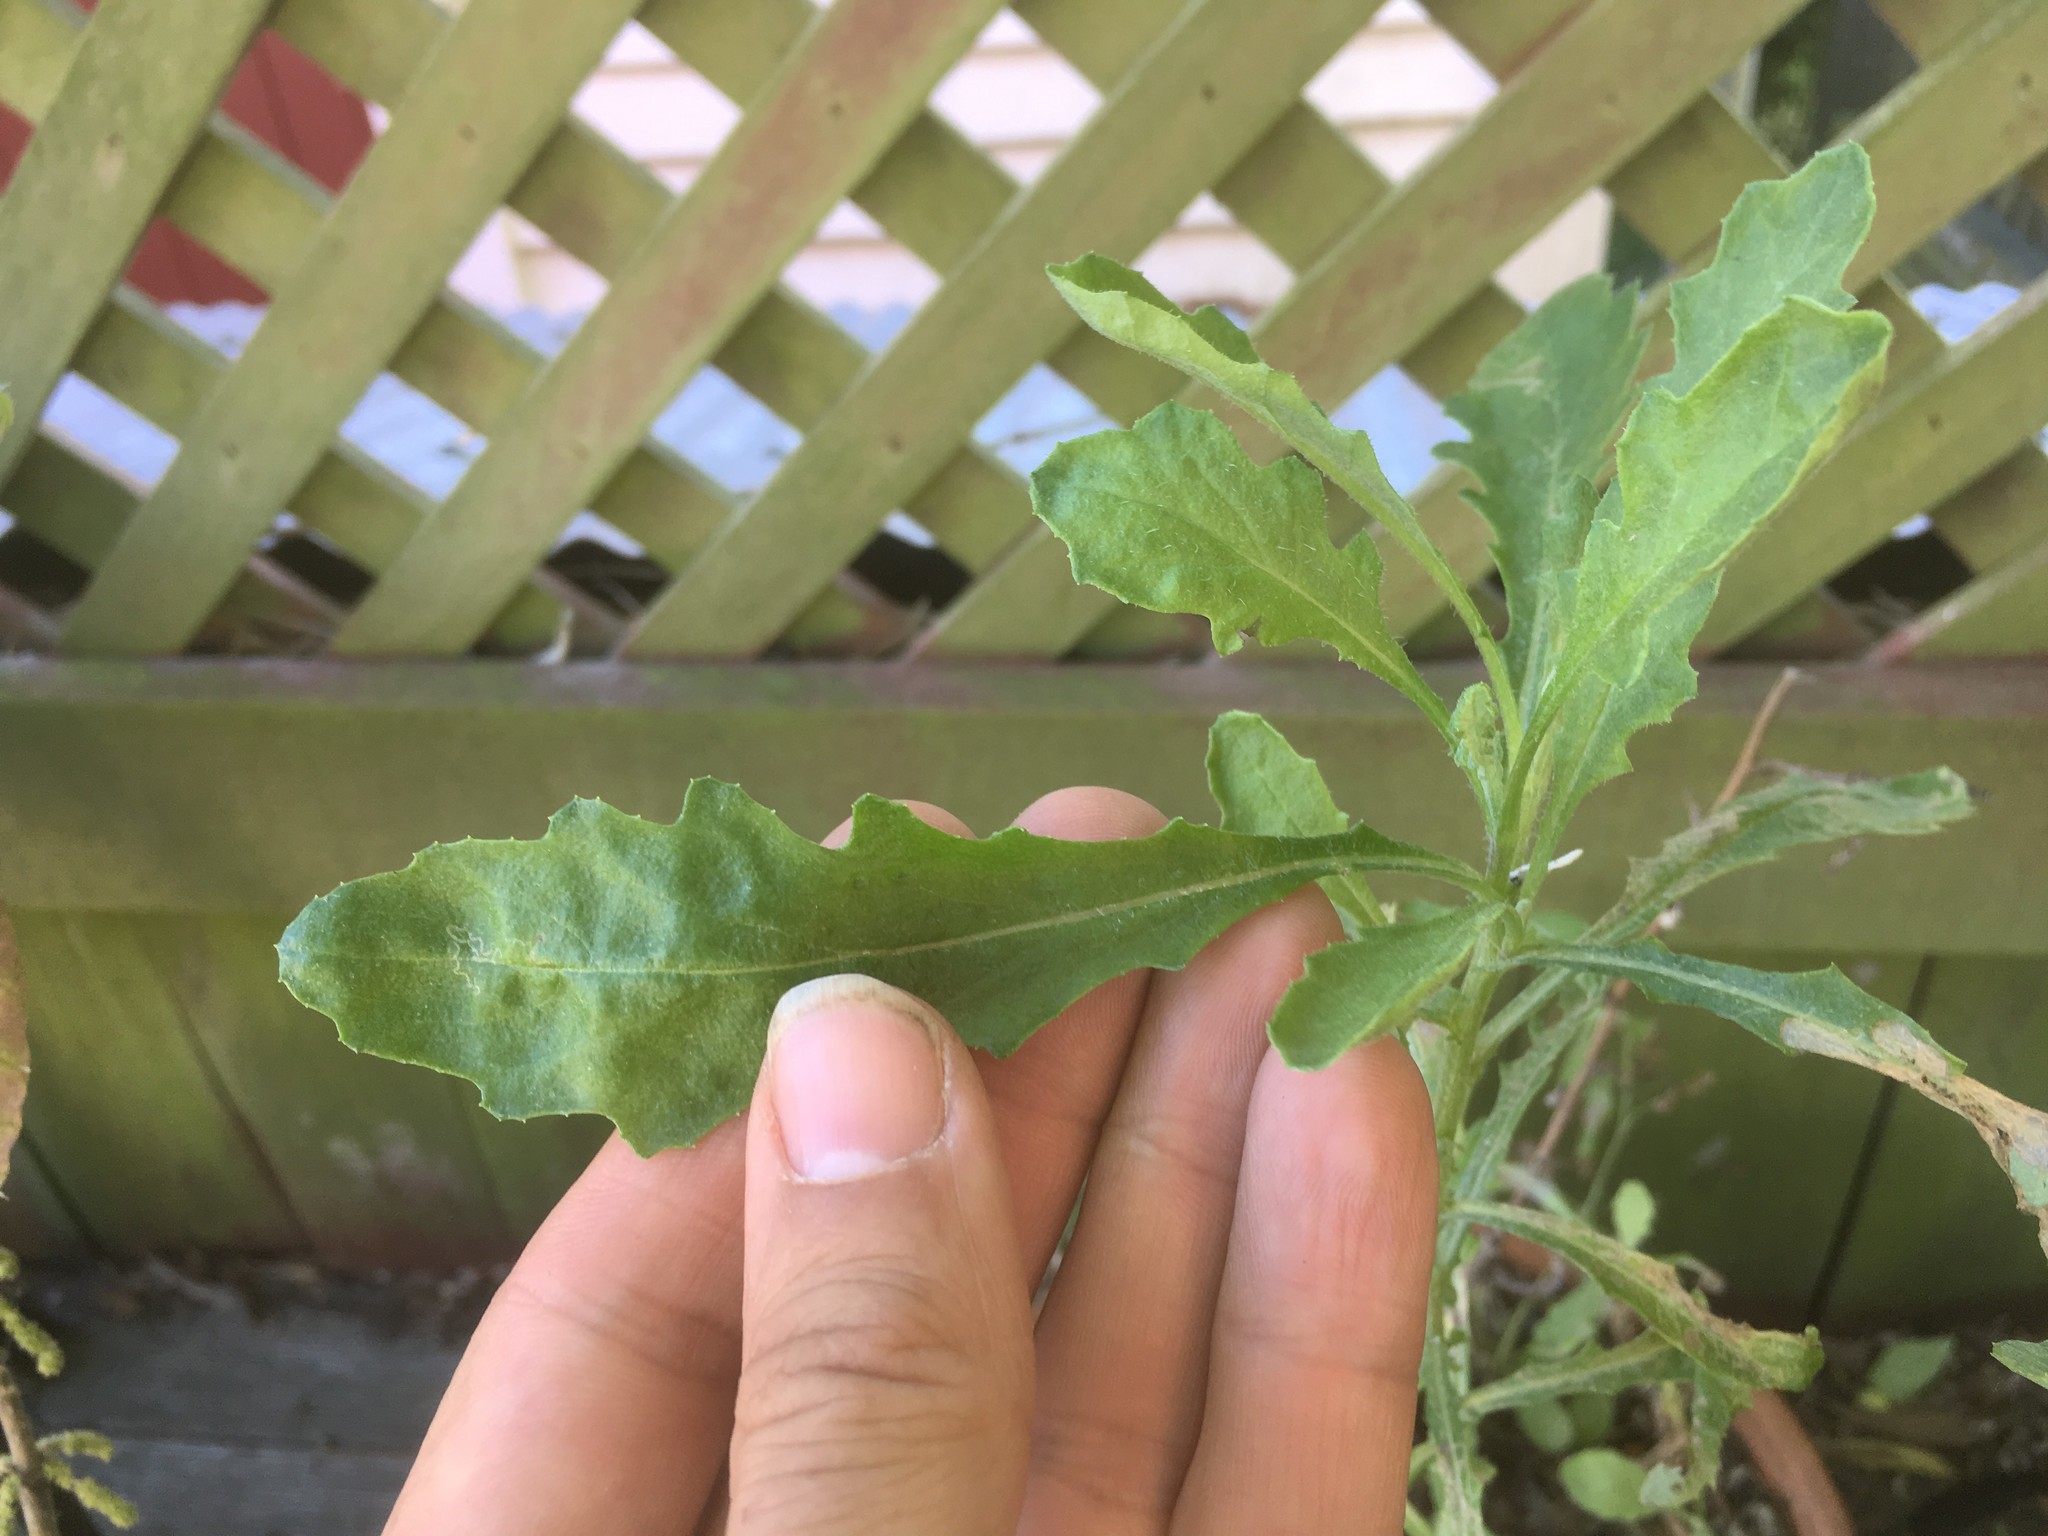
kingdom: Plantae
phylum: Tracheophyta
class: Magnoliopsida
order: Asterales
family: Asteraceae
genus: Senecio
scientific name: Senecio glomeratus
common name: Cutleaf burnweed
